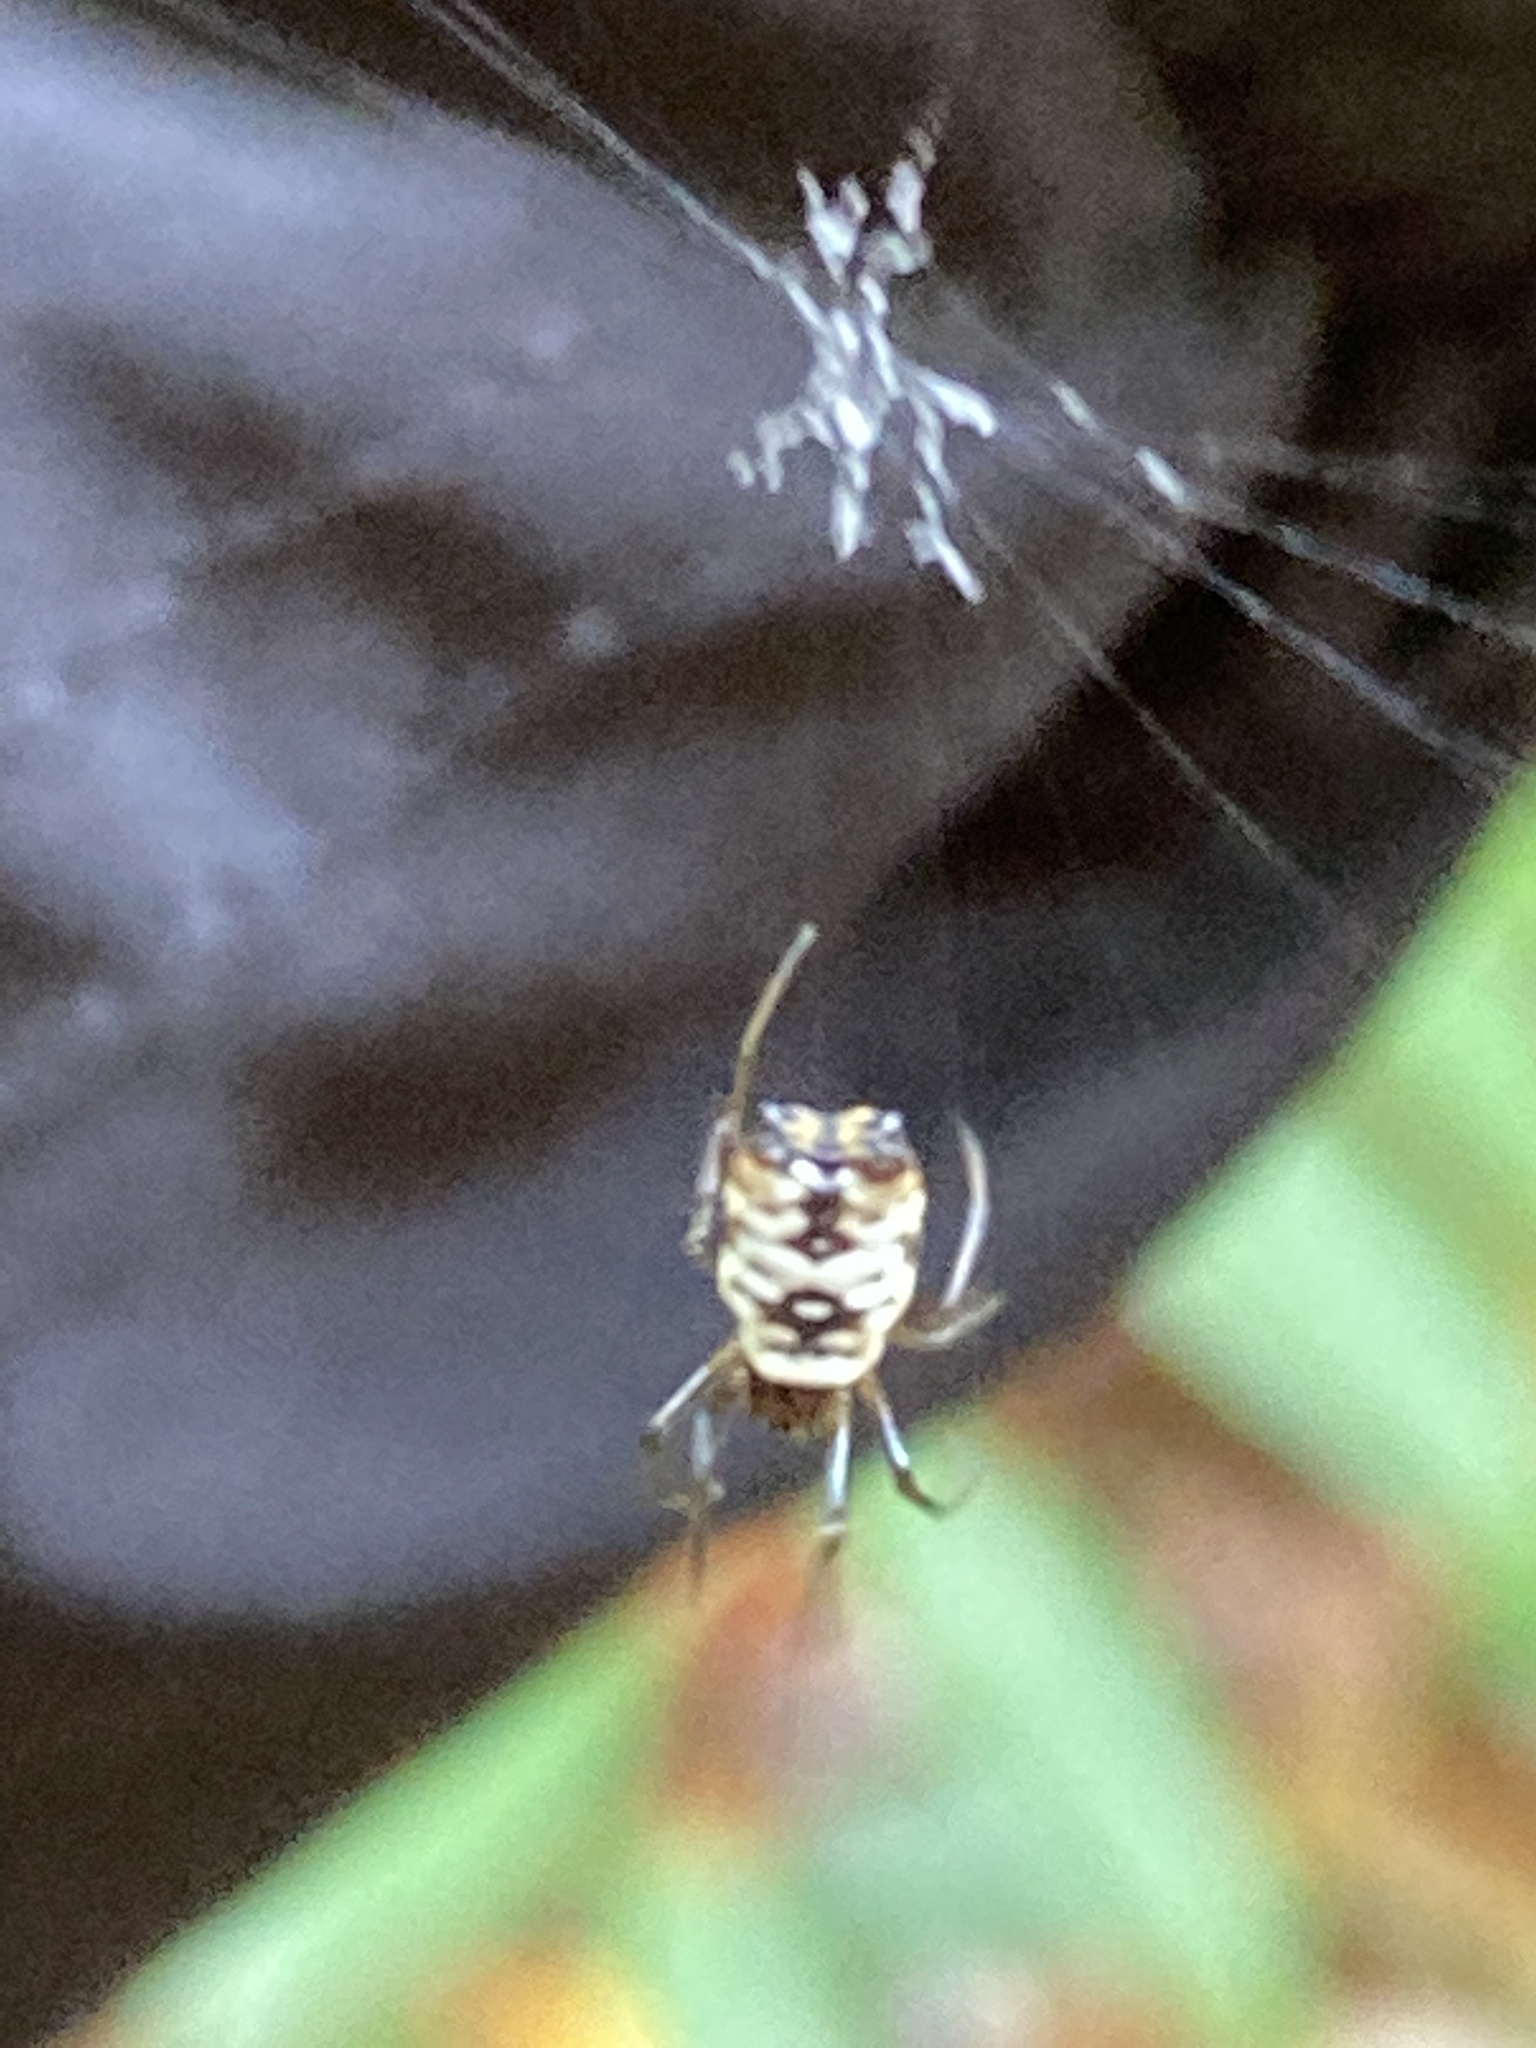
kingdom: Animalia
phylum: Arthropoda
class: Arachnida
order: Araneae
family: Araneidae
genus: Micrathena
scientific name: Micrathena mitrata
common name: Orb weavers
